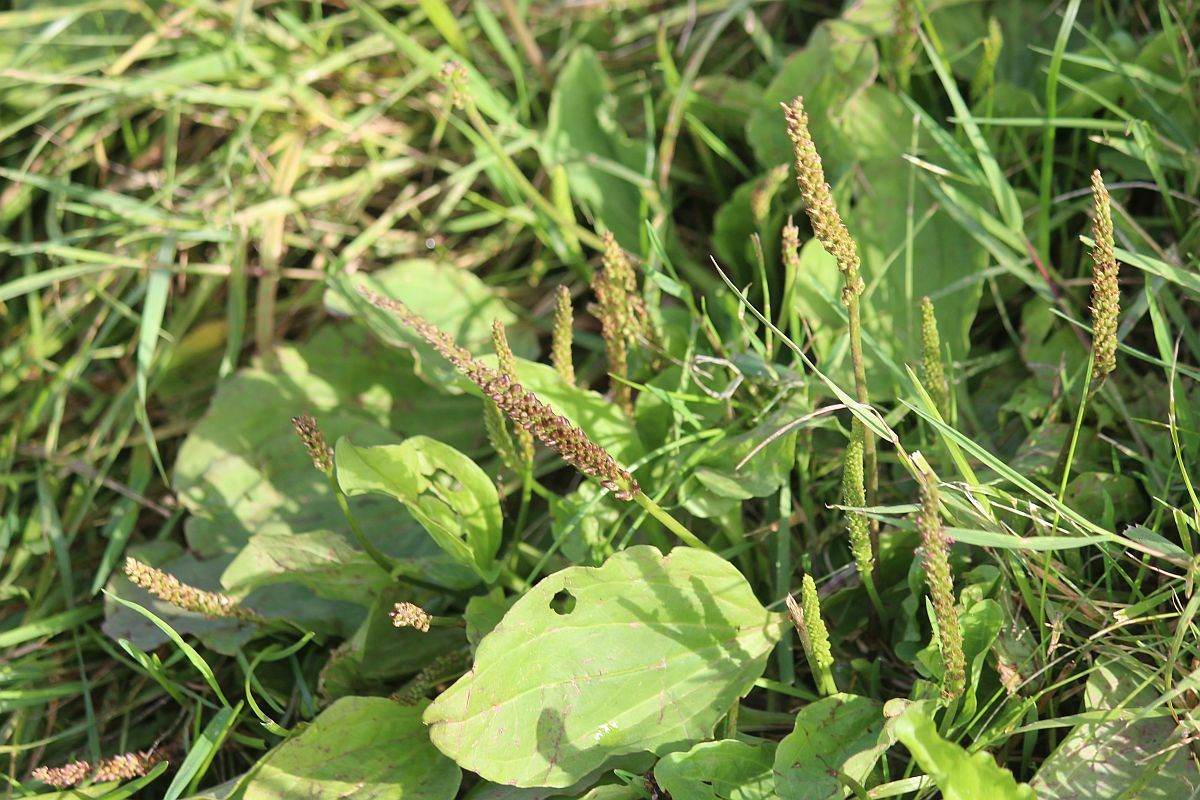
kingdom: Plantae
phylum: Tracheophyta
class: Magnoliopsida
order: Lamiales
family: Plantaginaceae
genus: Plantago
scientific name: Plantago major
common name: Common plantain
